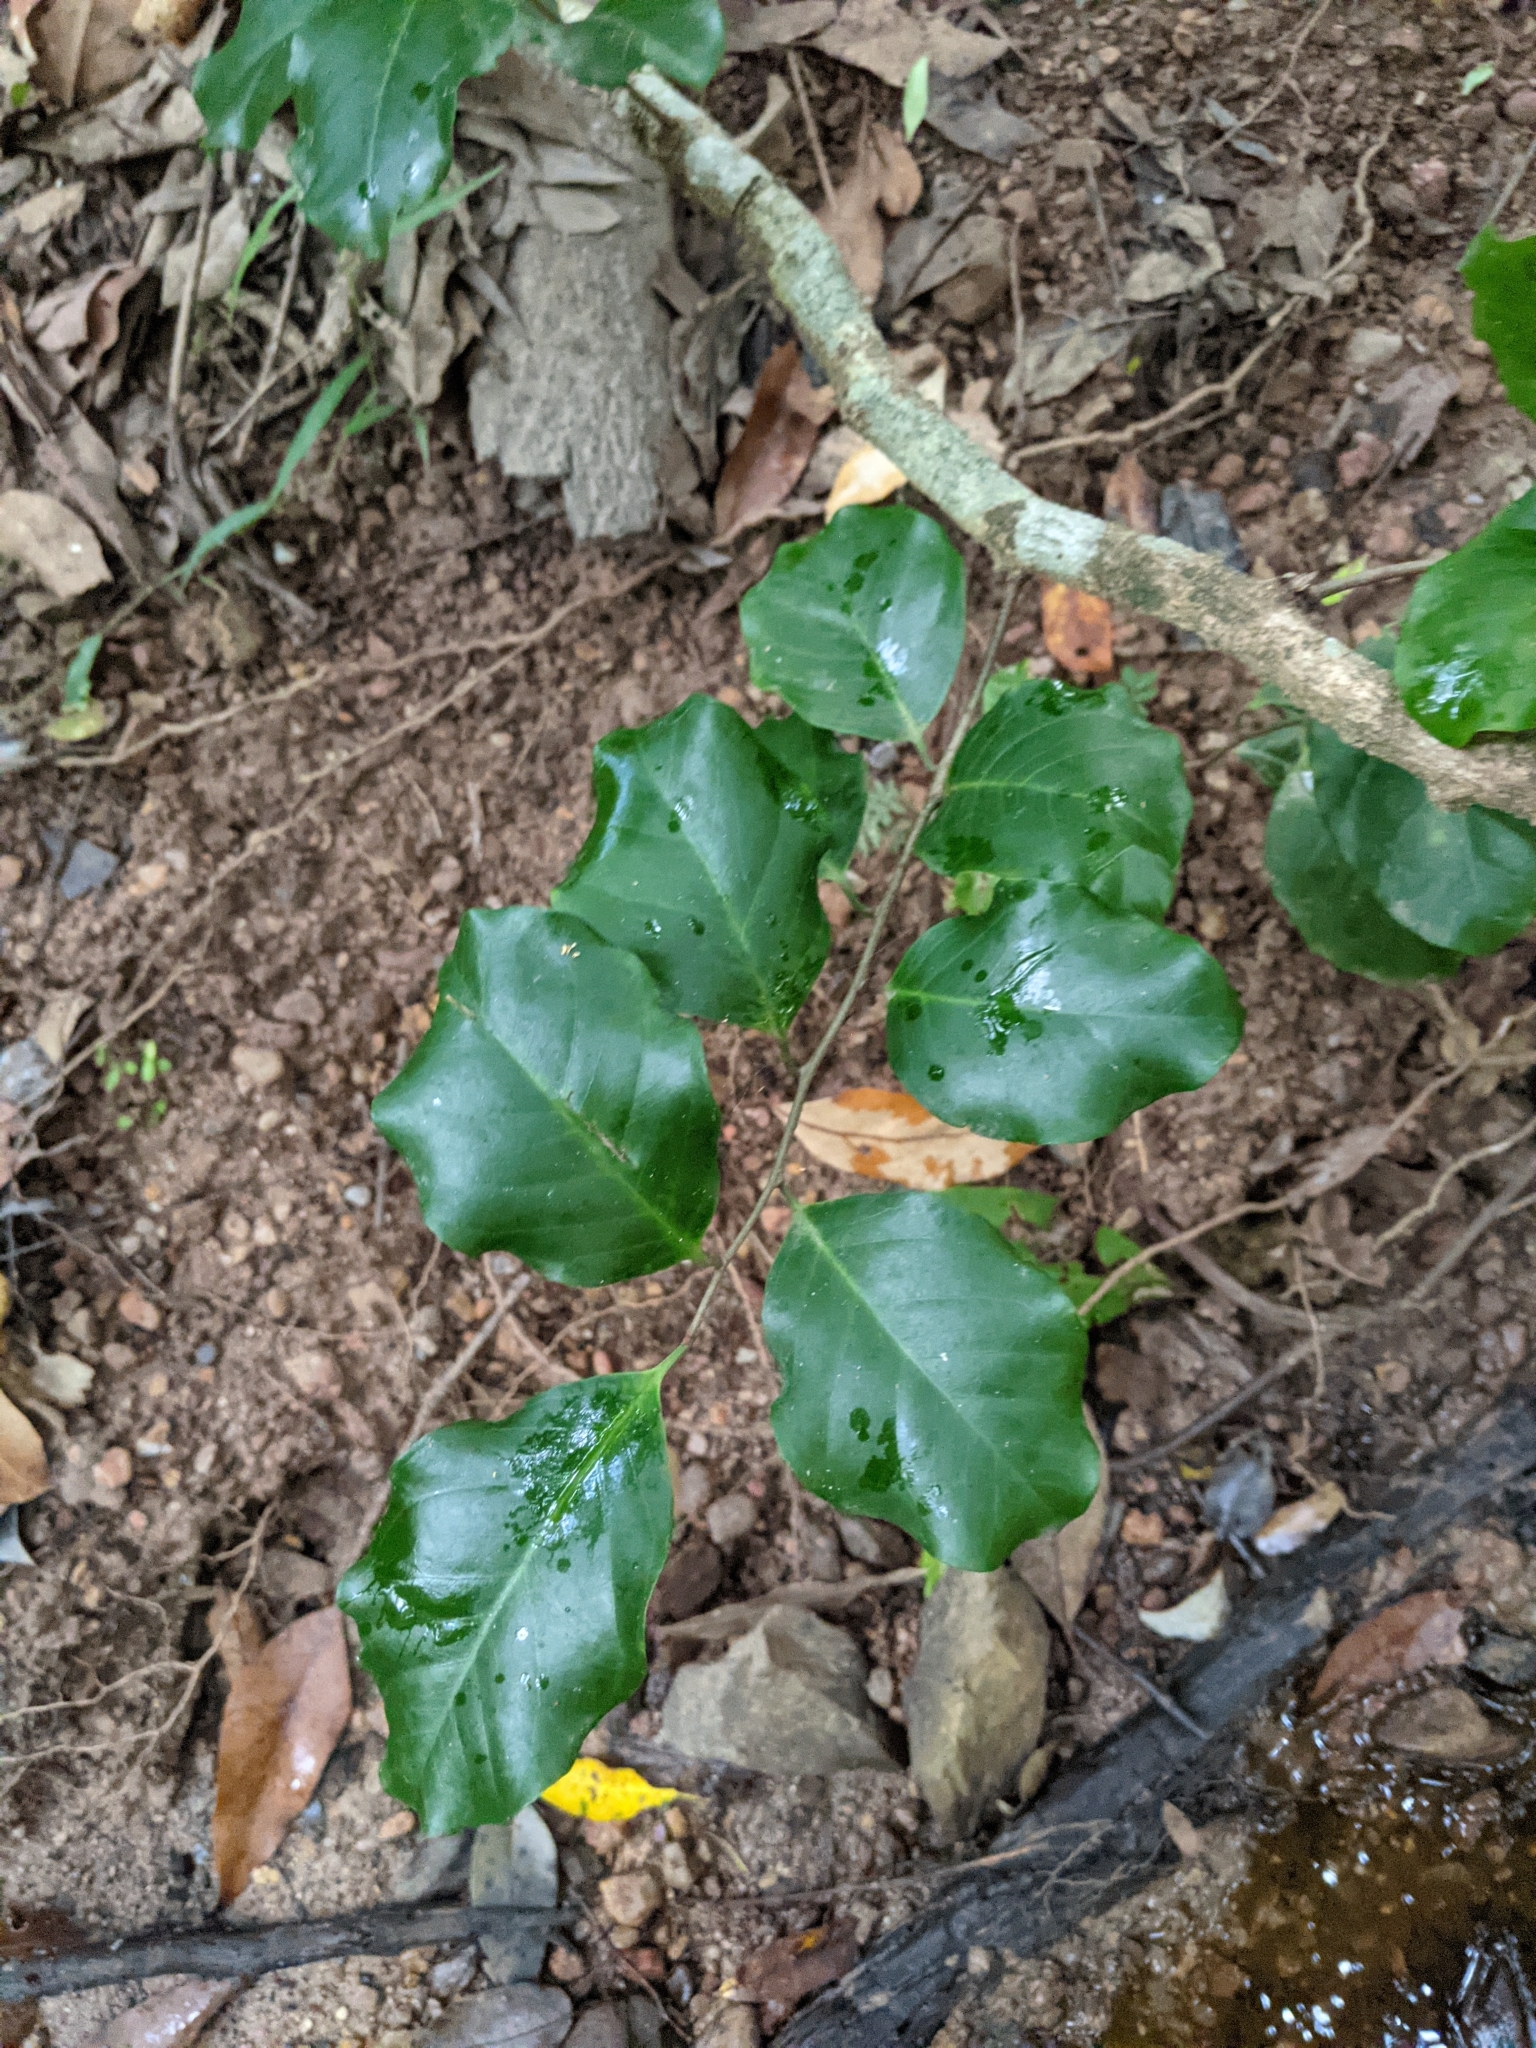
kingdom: Plantae
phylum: Tracheophyta
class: Magnoliopsida
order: Ericales
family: Primulaceae
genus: Embelia
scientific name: Embelia australiana
